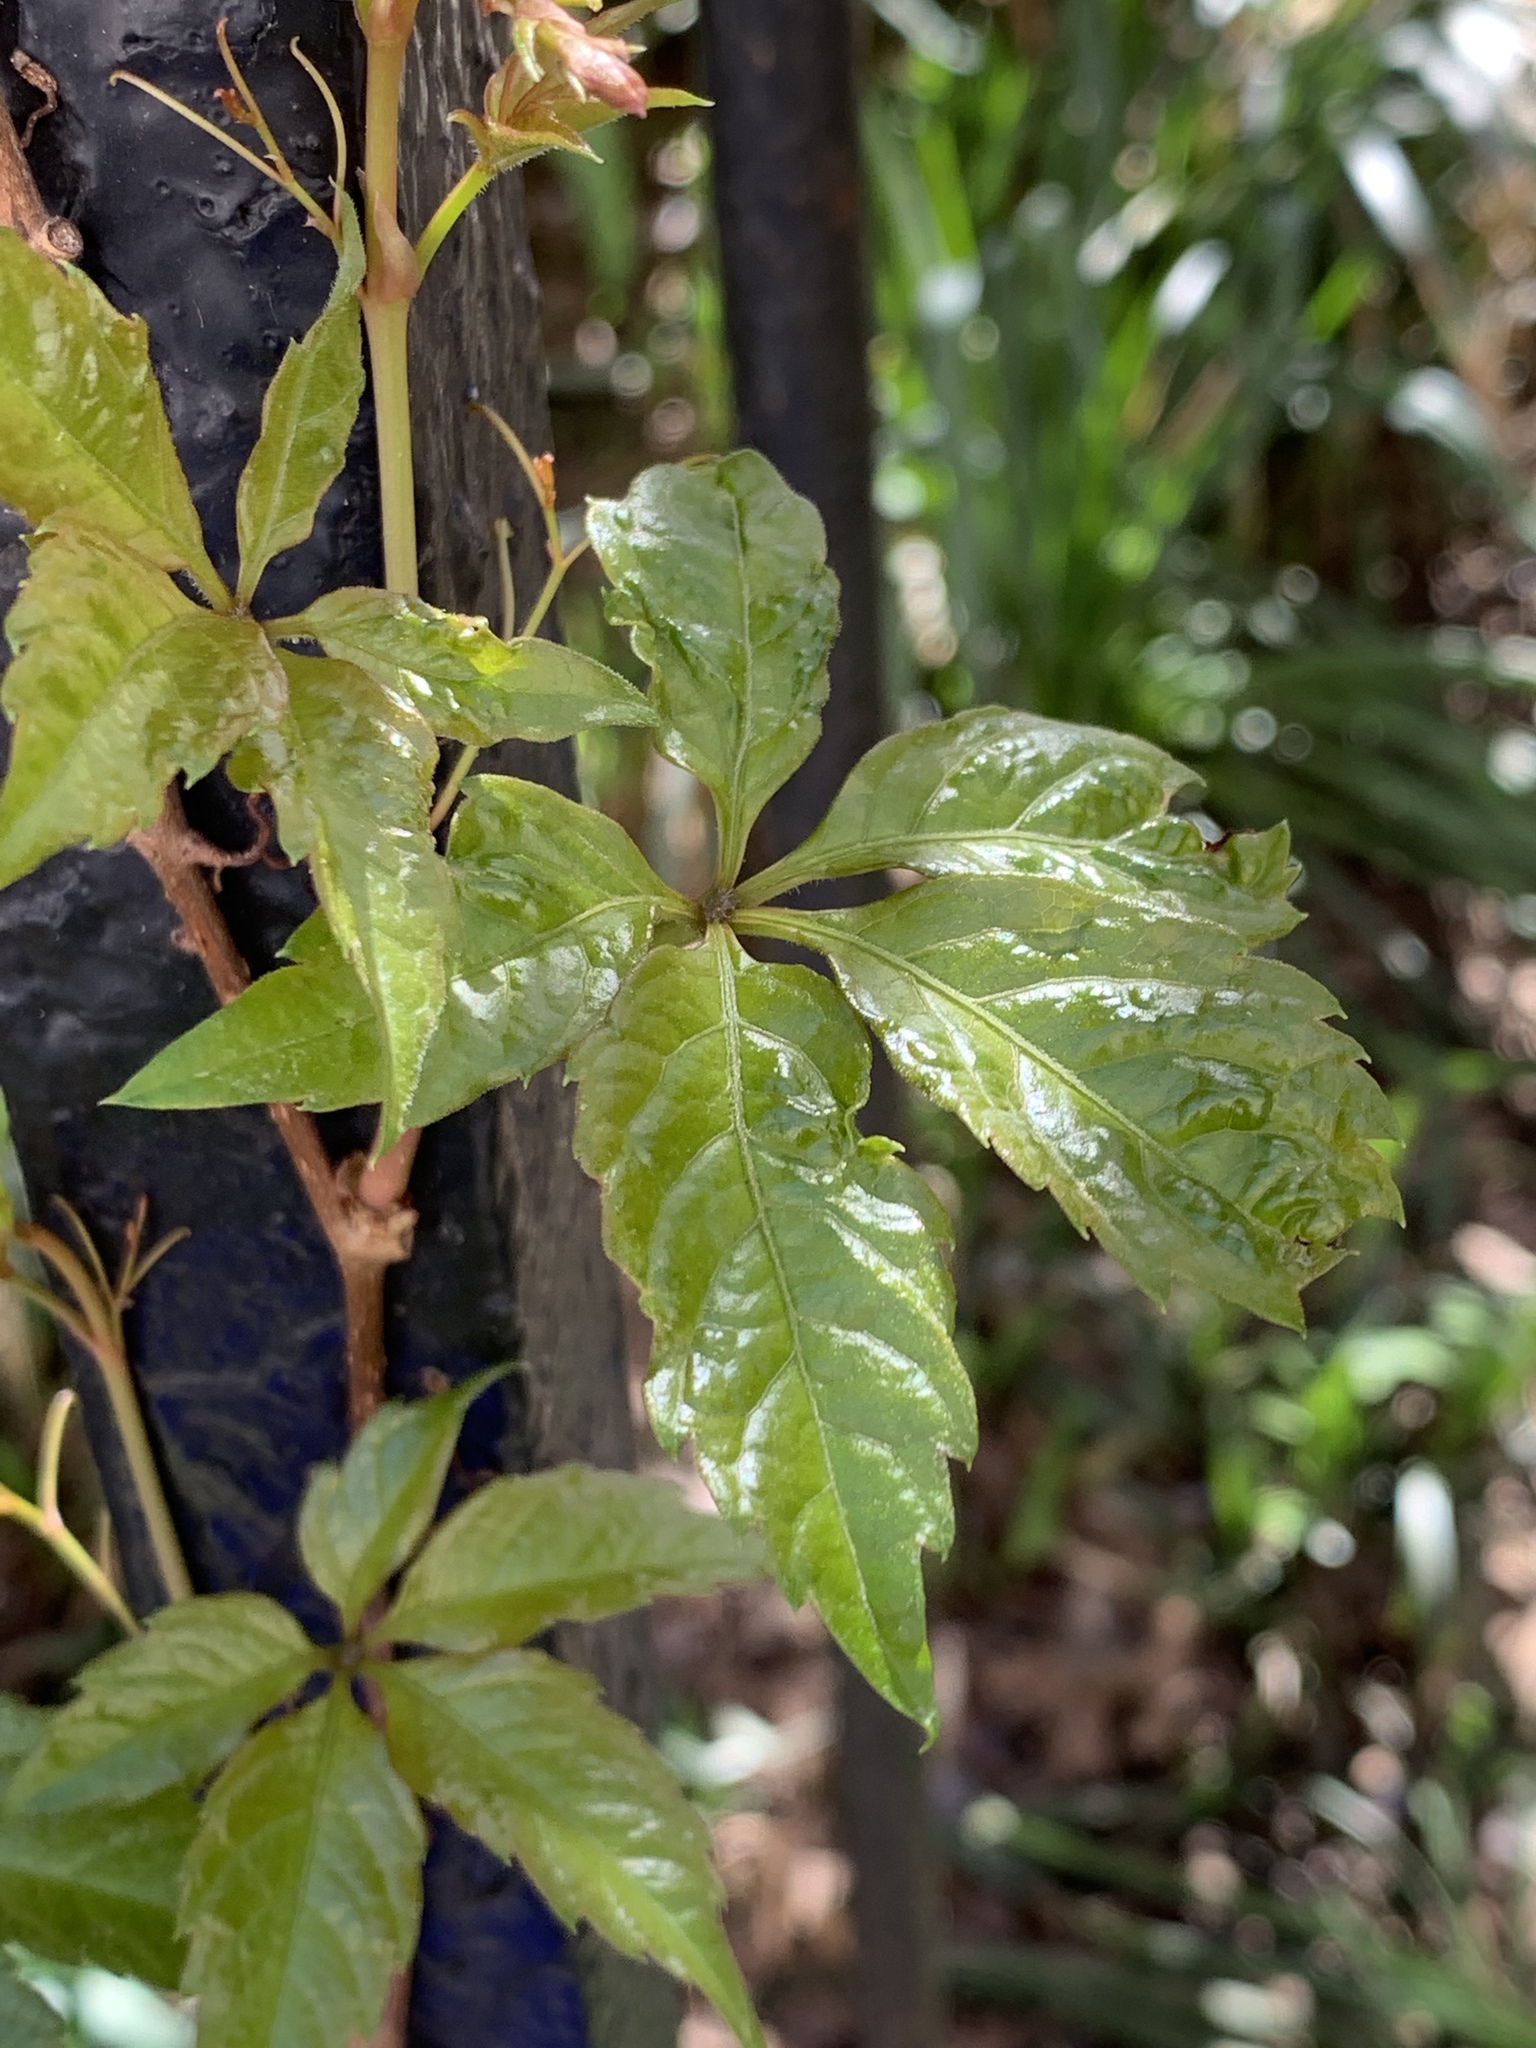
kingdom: Plantae
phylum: Tracheophyta
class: Magnoliopsida
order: Vitales
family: Vitaceae
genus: Parthenocissus
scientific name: Parthenocissus quinquefolia
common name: Virginia-creeper
